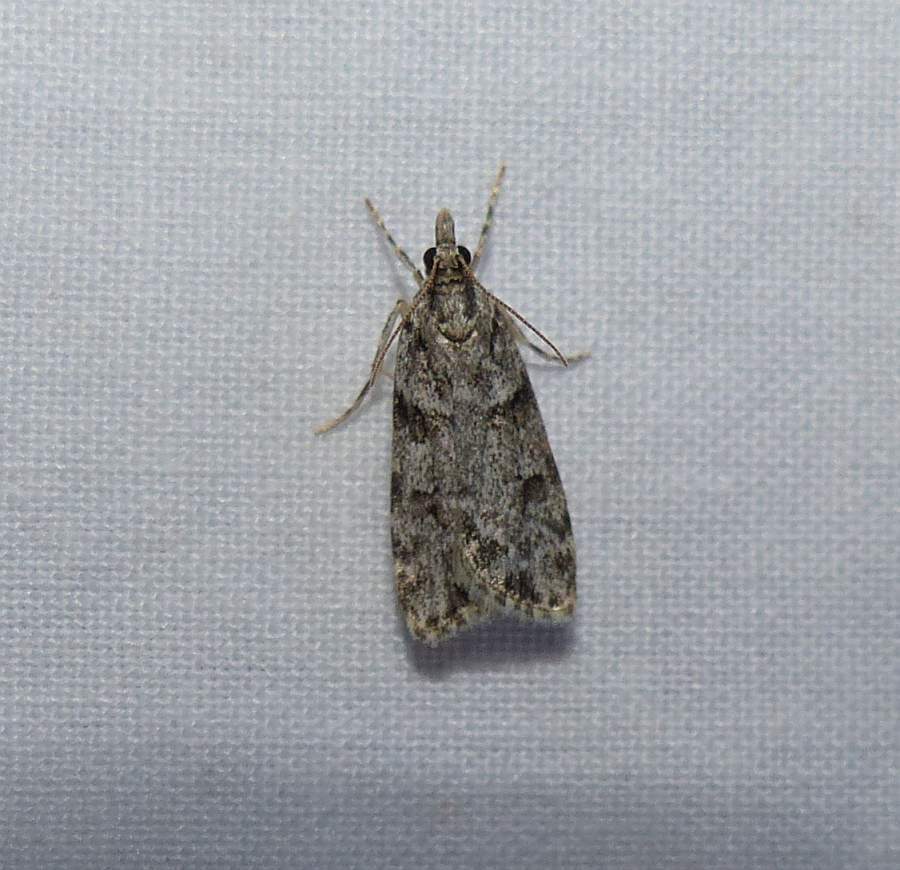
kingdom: Animalia
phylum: Arthropoda
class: Insecta
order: Lepidoptera
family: Crambidae
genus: Scoparia
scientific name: Scoparia biplagialis
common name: Double-striped scoparia moth
